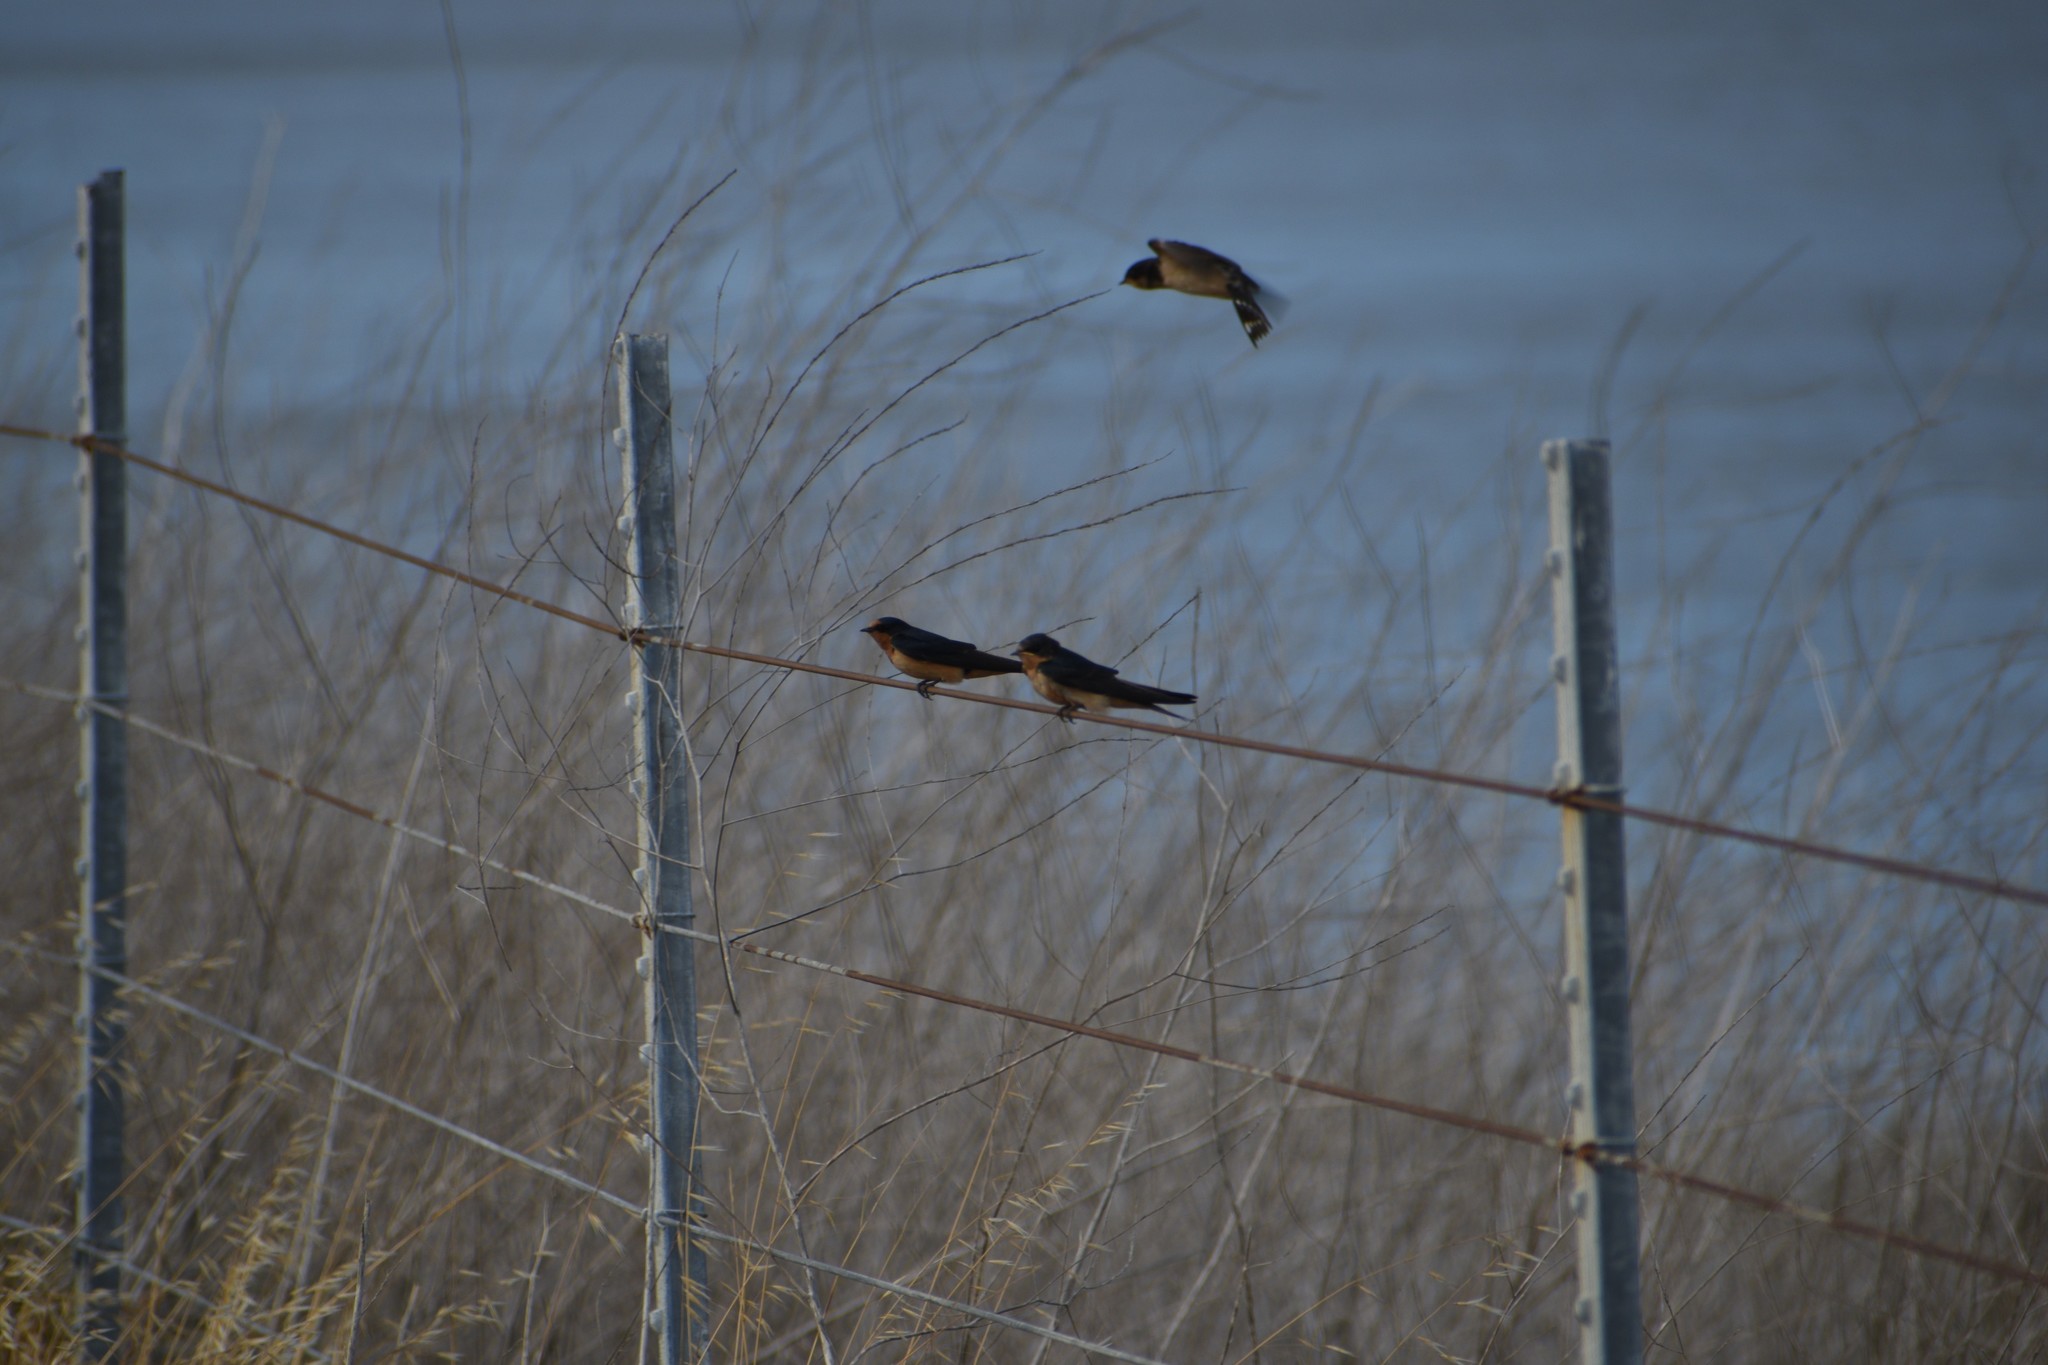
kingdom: Animalia
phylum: Chordata
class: Aves
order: Passeriformes
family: Hirundinidae
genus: Hirundo
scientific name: Hirundo rustica
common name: Barn swallow
